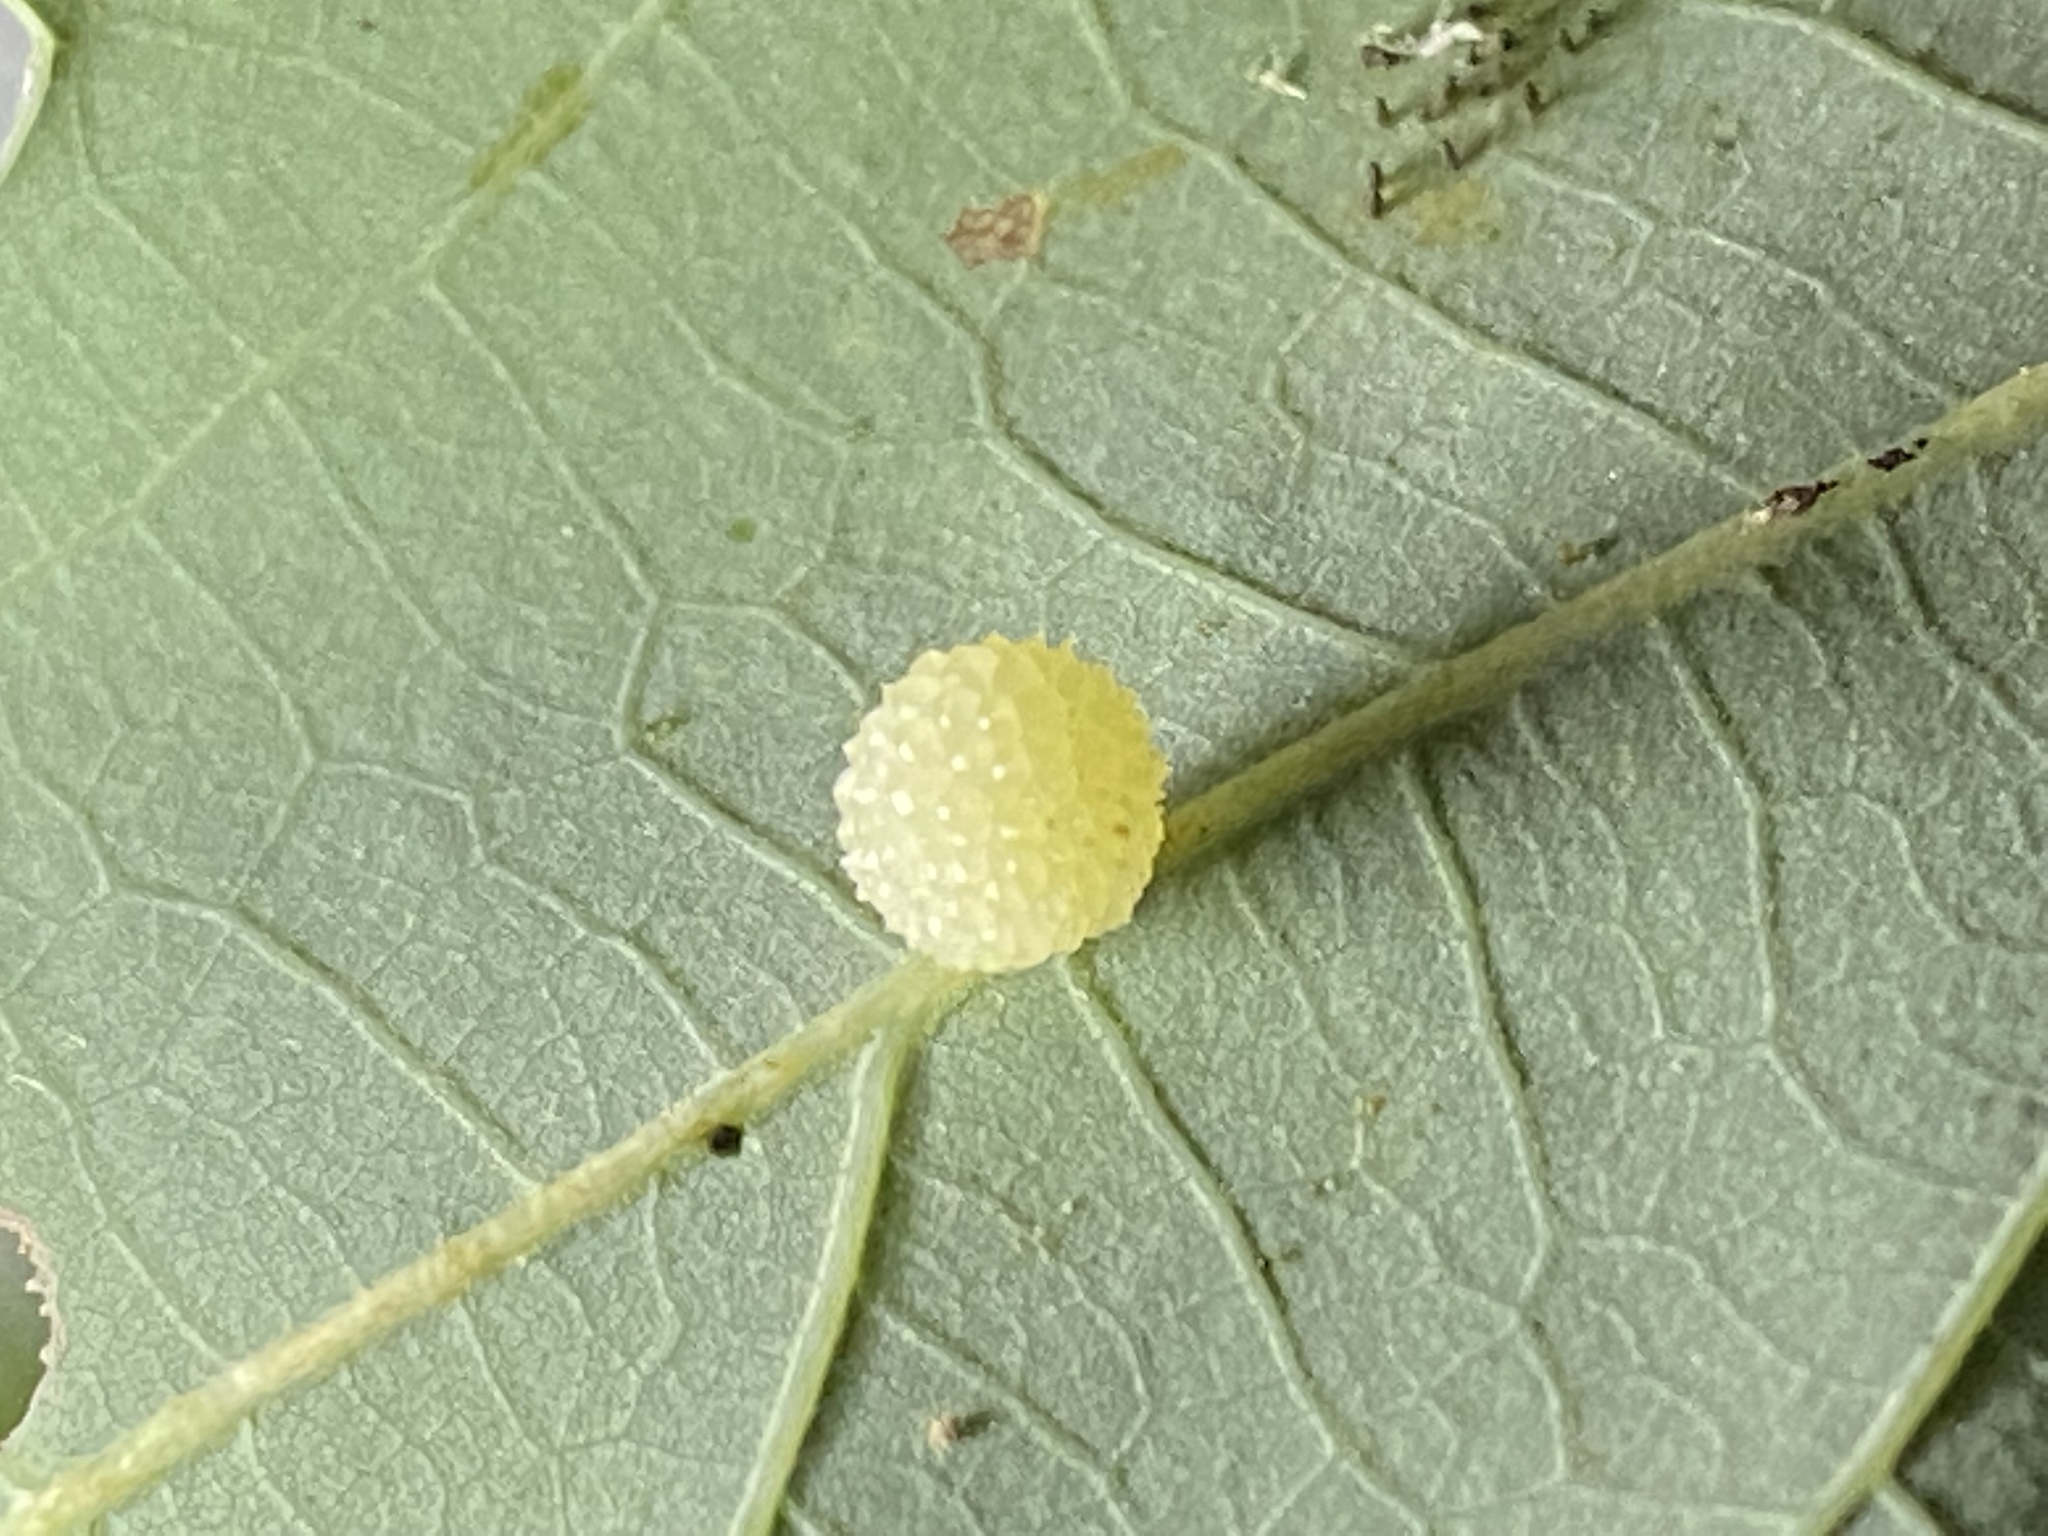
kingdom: Animalia
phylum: Arthropoda
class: Insecta
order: Hymenoptera
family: Cynipidae
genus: Acraspis
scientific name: Acraspis
